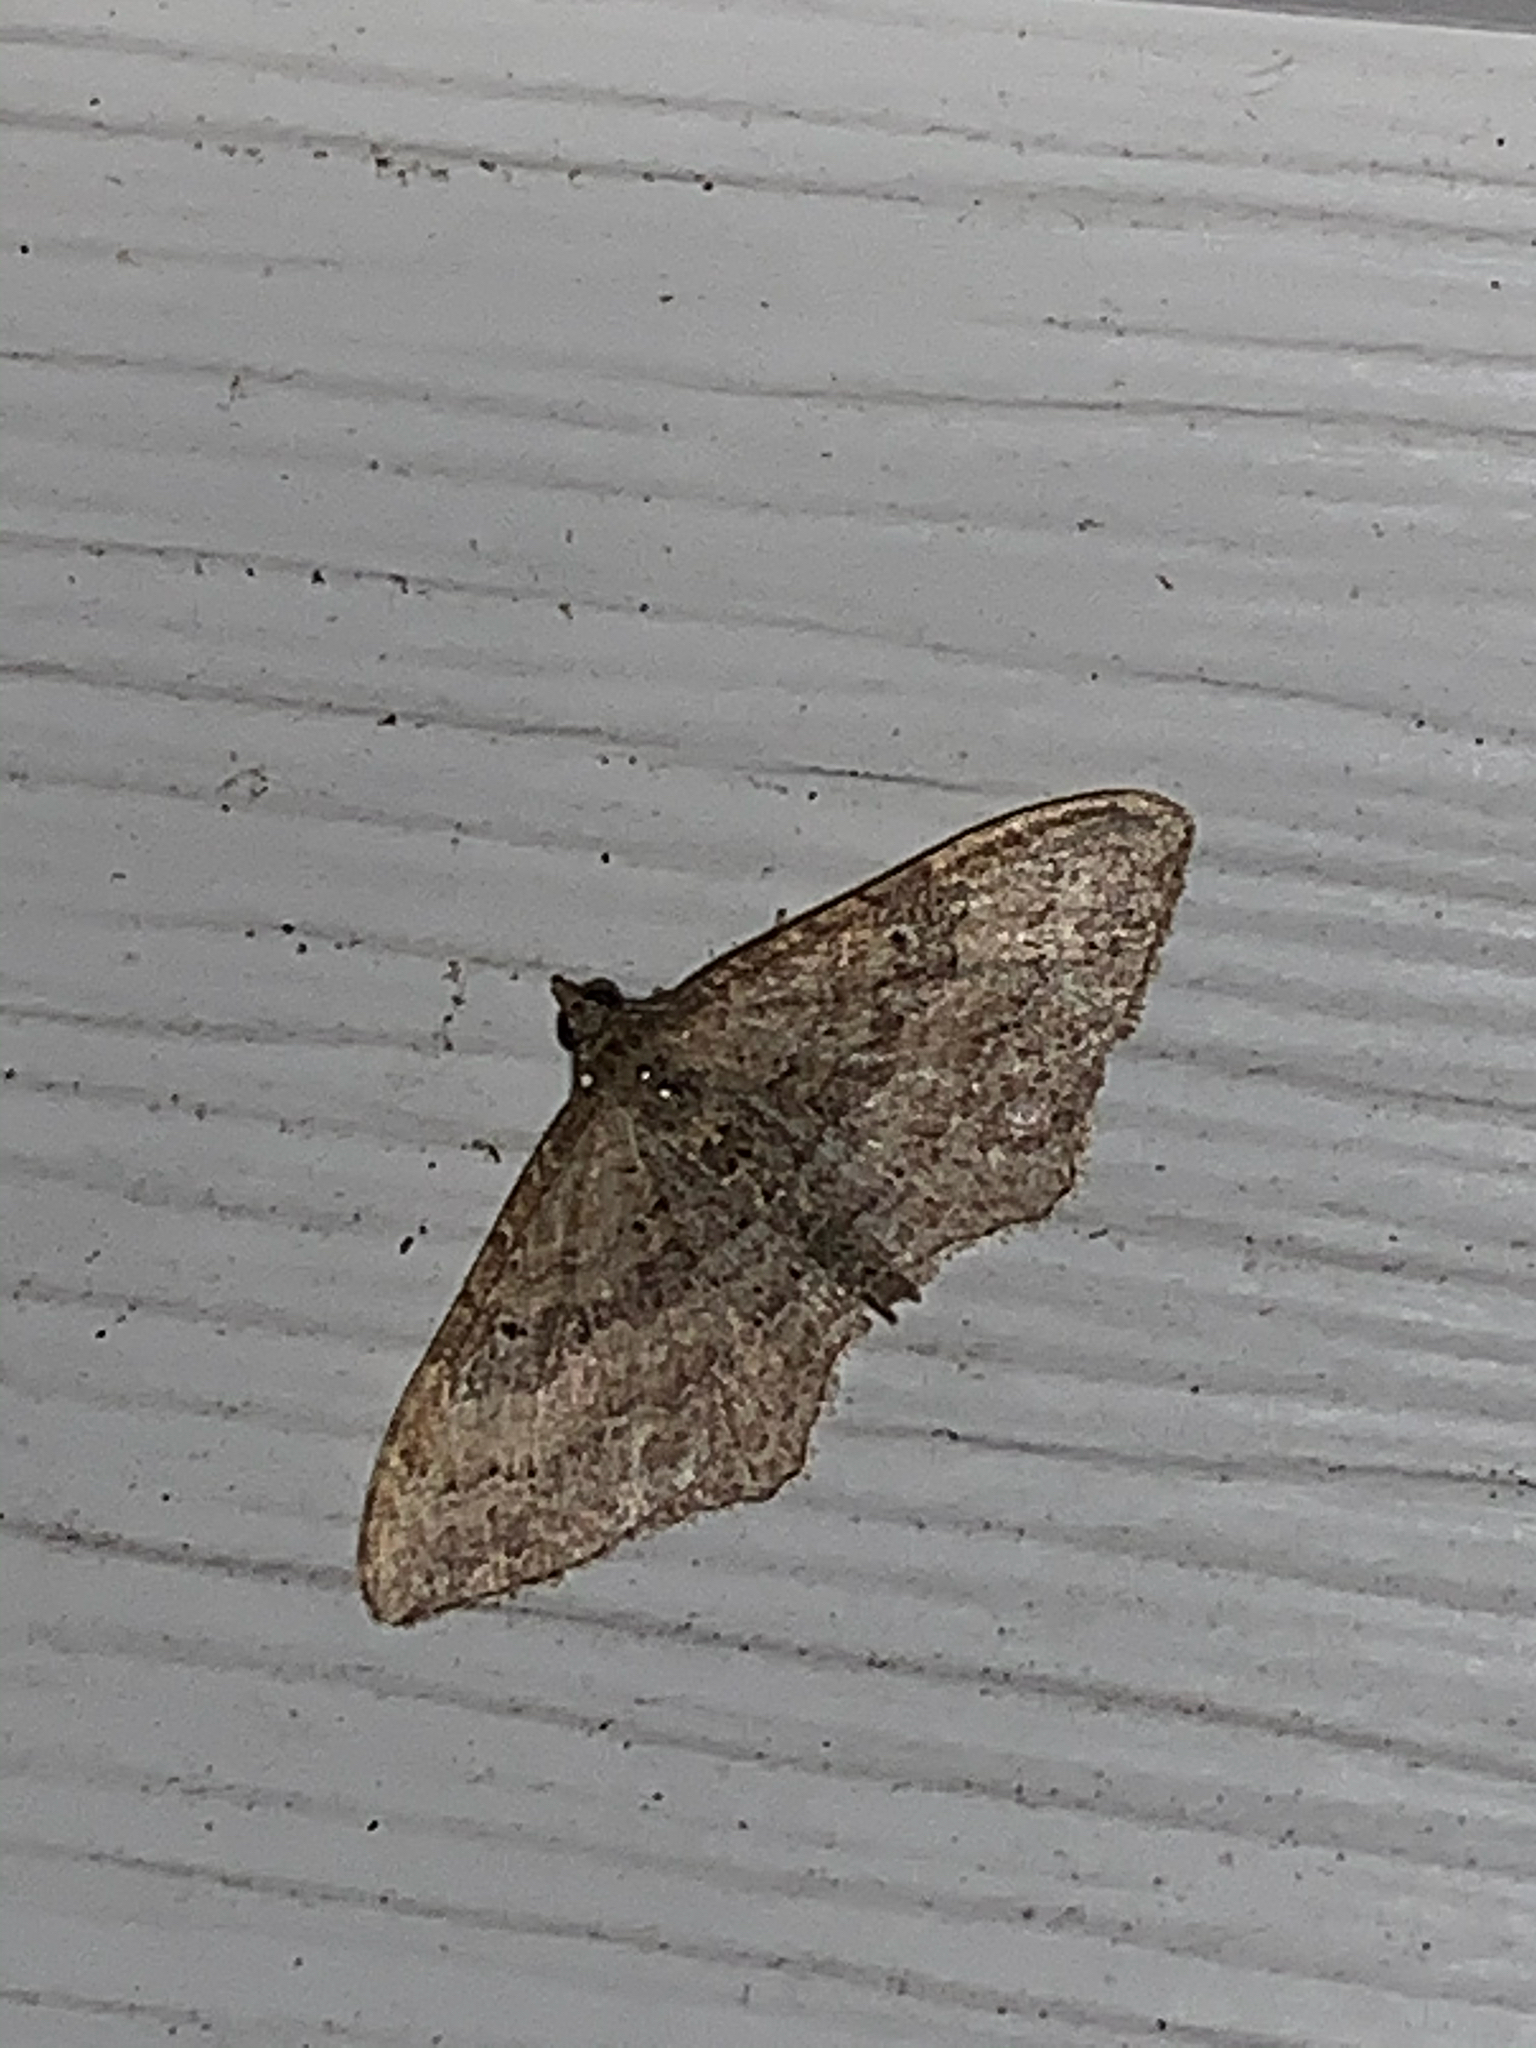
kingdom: Animalia
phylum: Arthropoda
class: Insecta
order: Lepidoptera
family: Geometridae
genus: Orthonama
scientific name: Orthonama obstipata
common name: The gem
